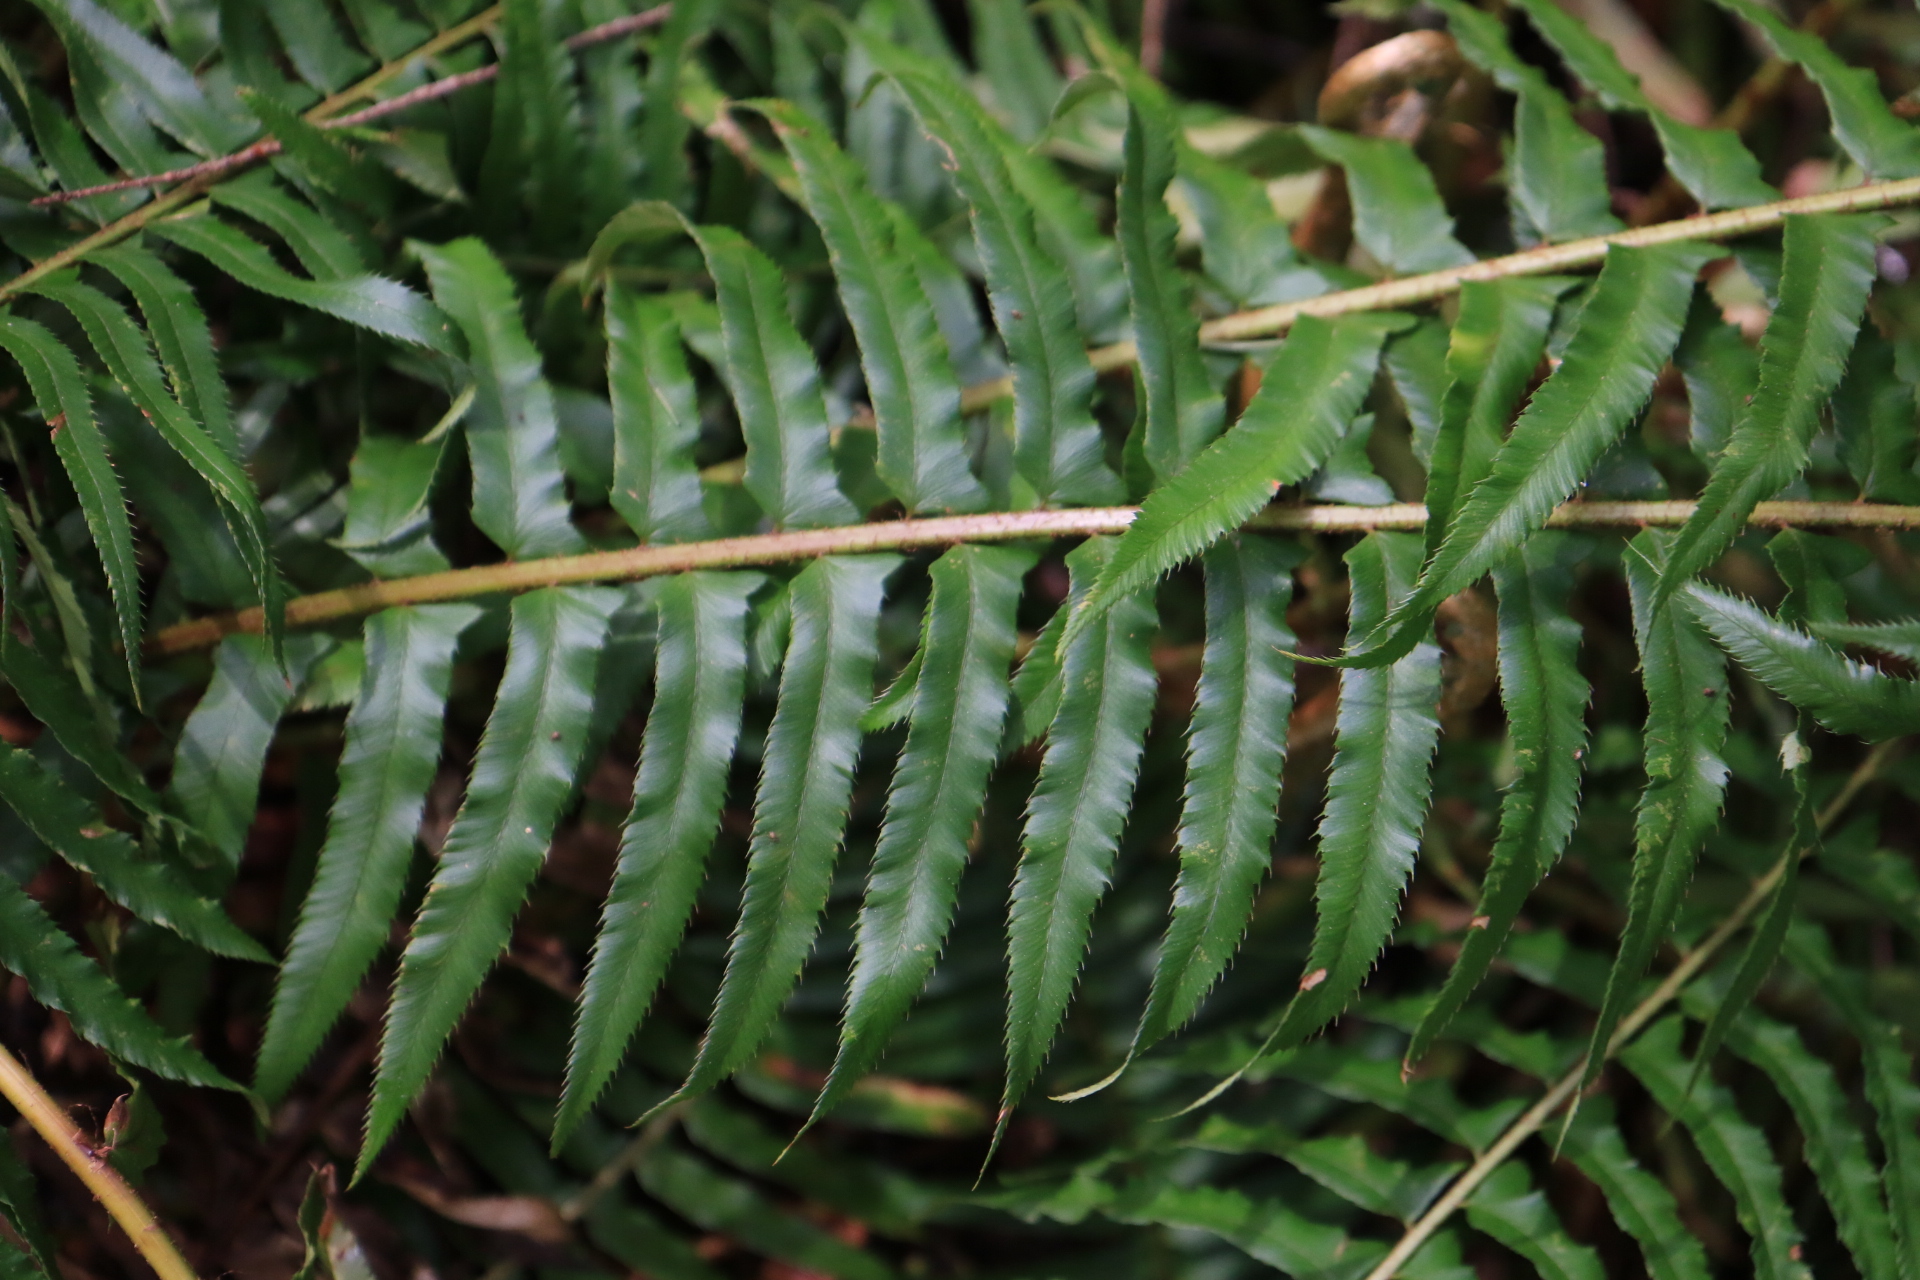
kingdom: Plantae
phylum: Tracheophyta
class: Polypodiopsida
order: Polypodiales
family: Dryopteridaceae
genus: Polystichum
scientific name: Polystichum munitum
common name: Western sword-fern
